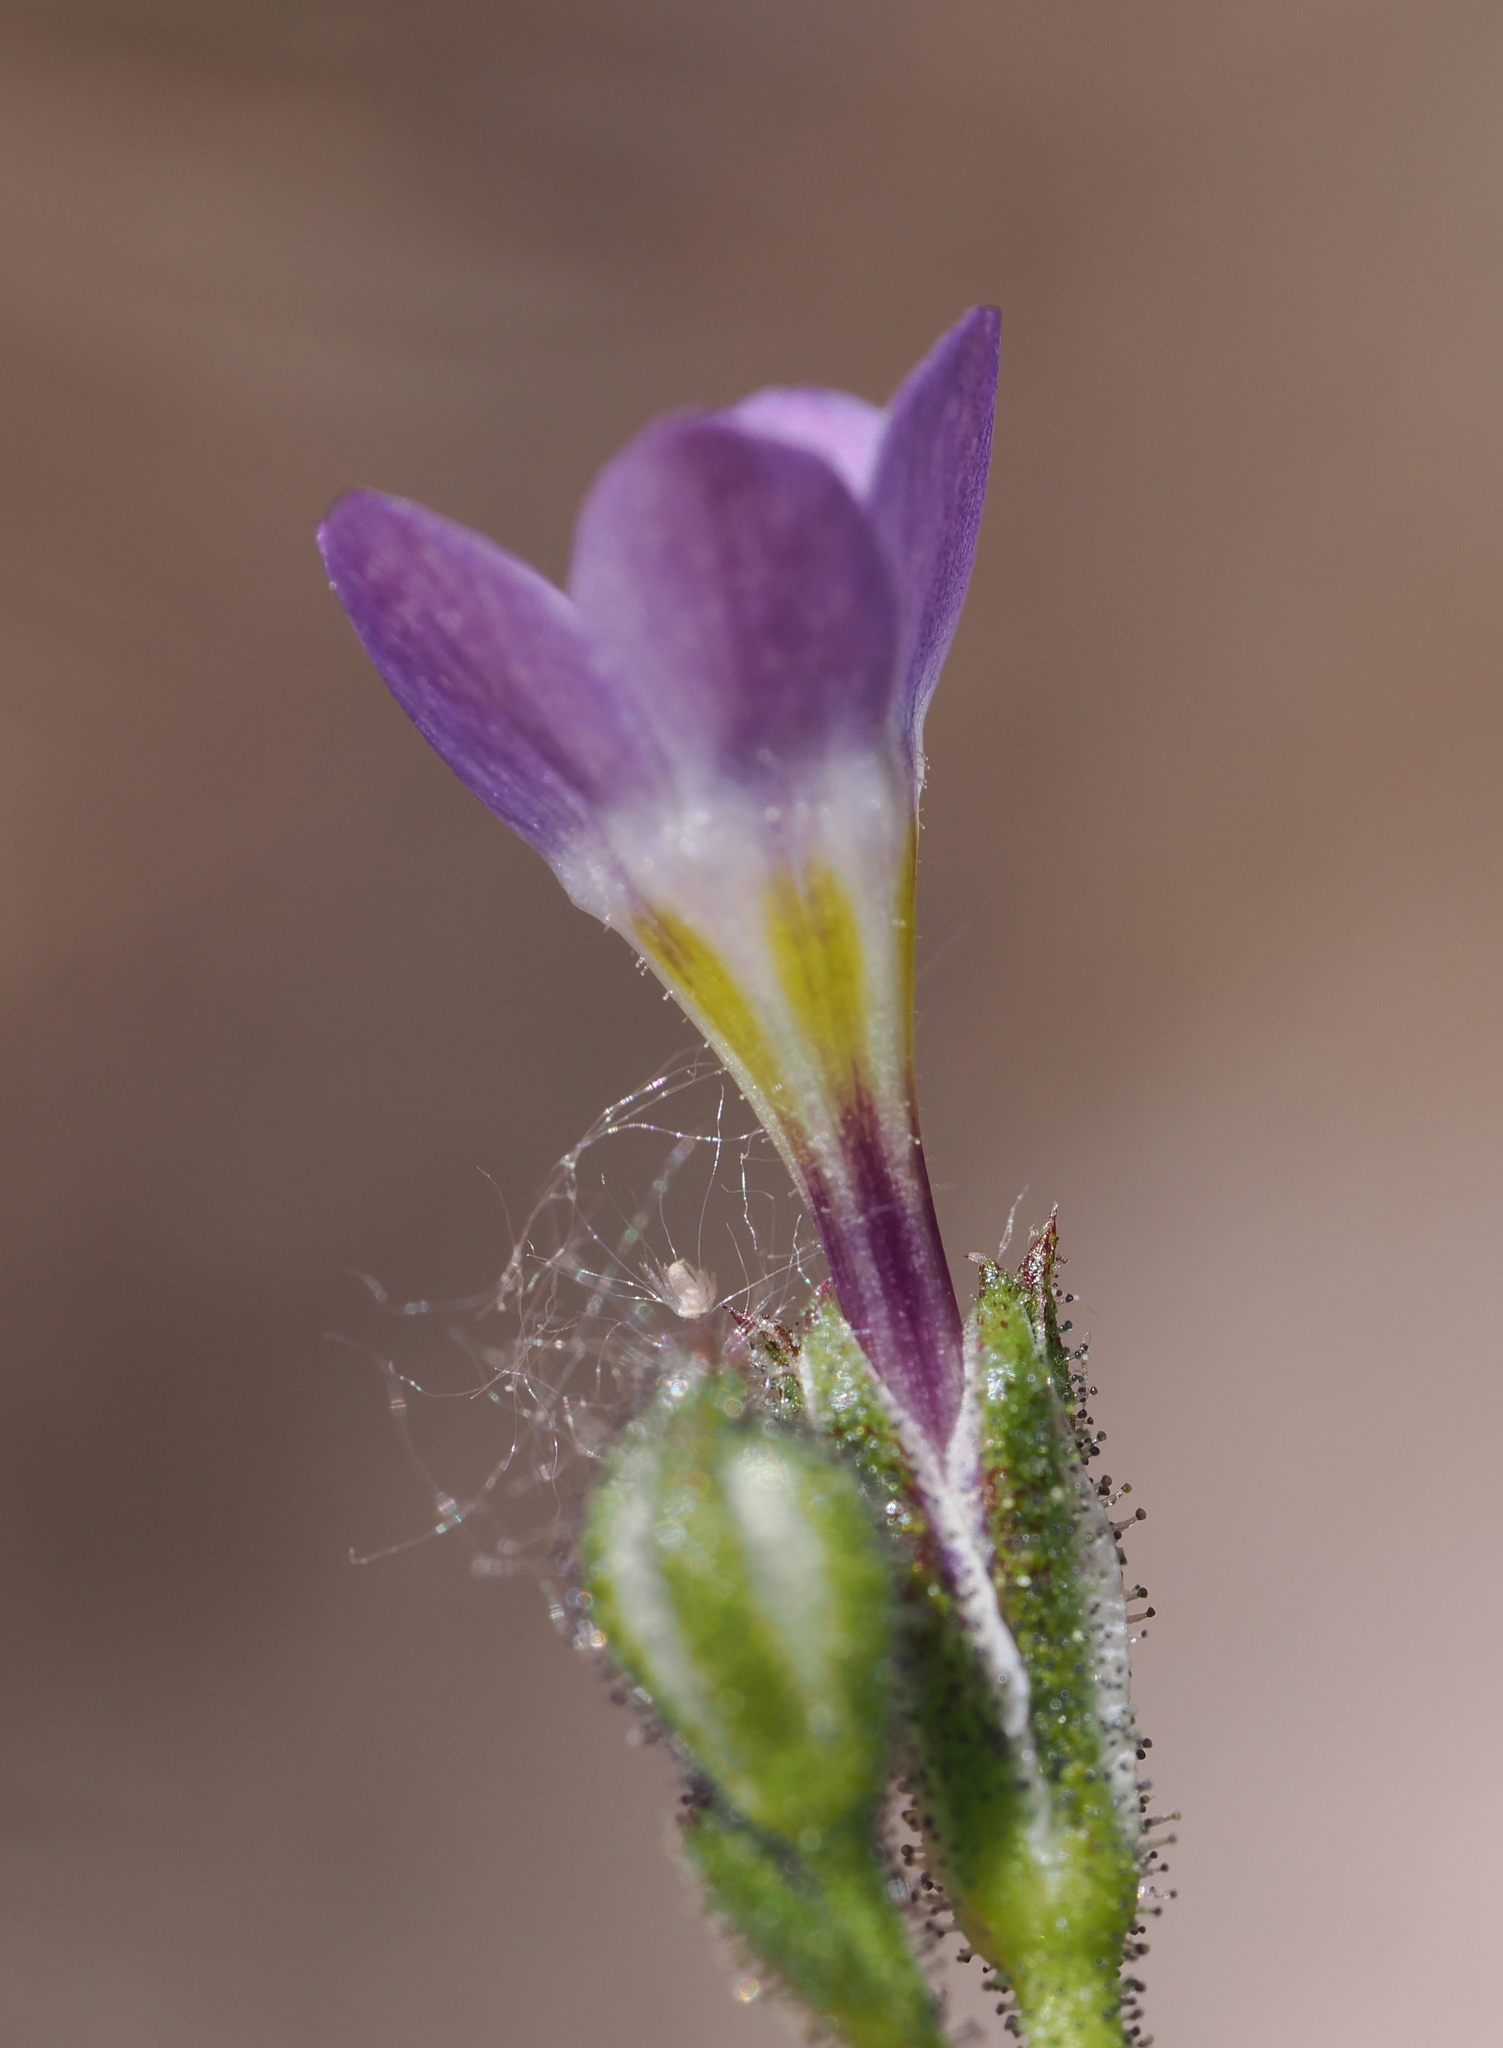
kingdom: Plantae
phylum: Tracheophyta
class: Magnoliopsida
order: Ericales
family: Polemoniaceae
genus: Gilia
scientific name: Gilia modocensis
